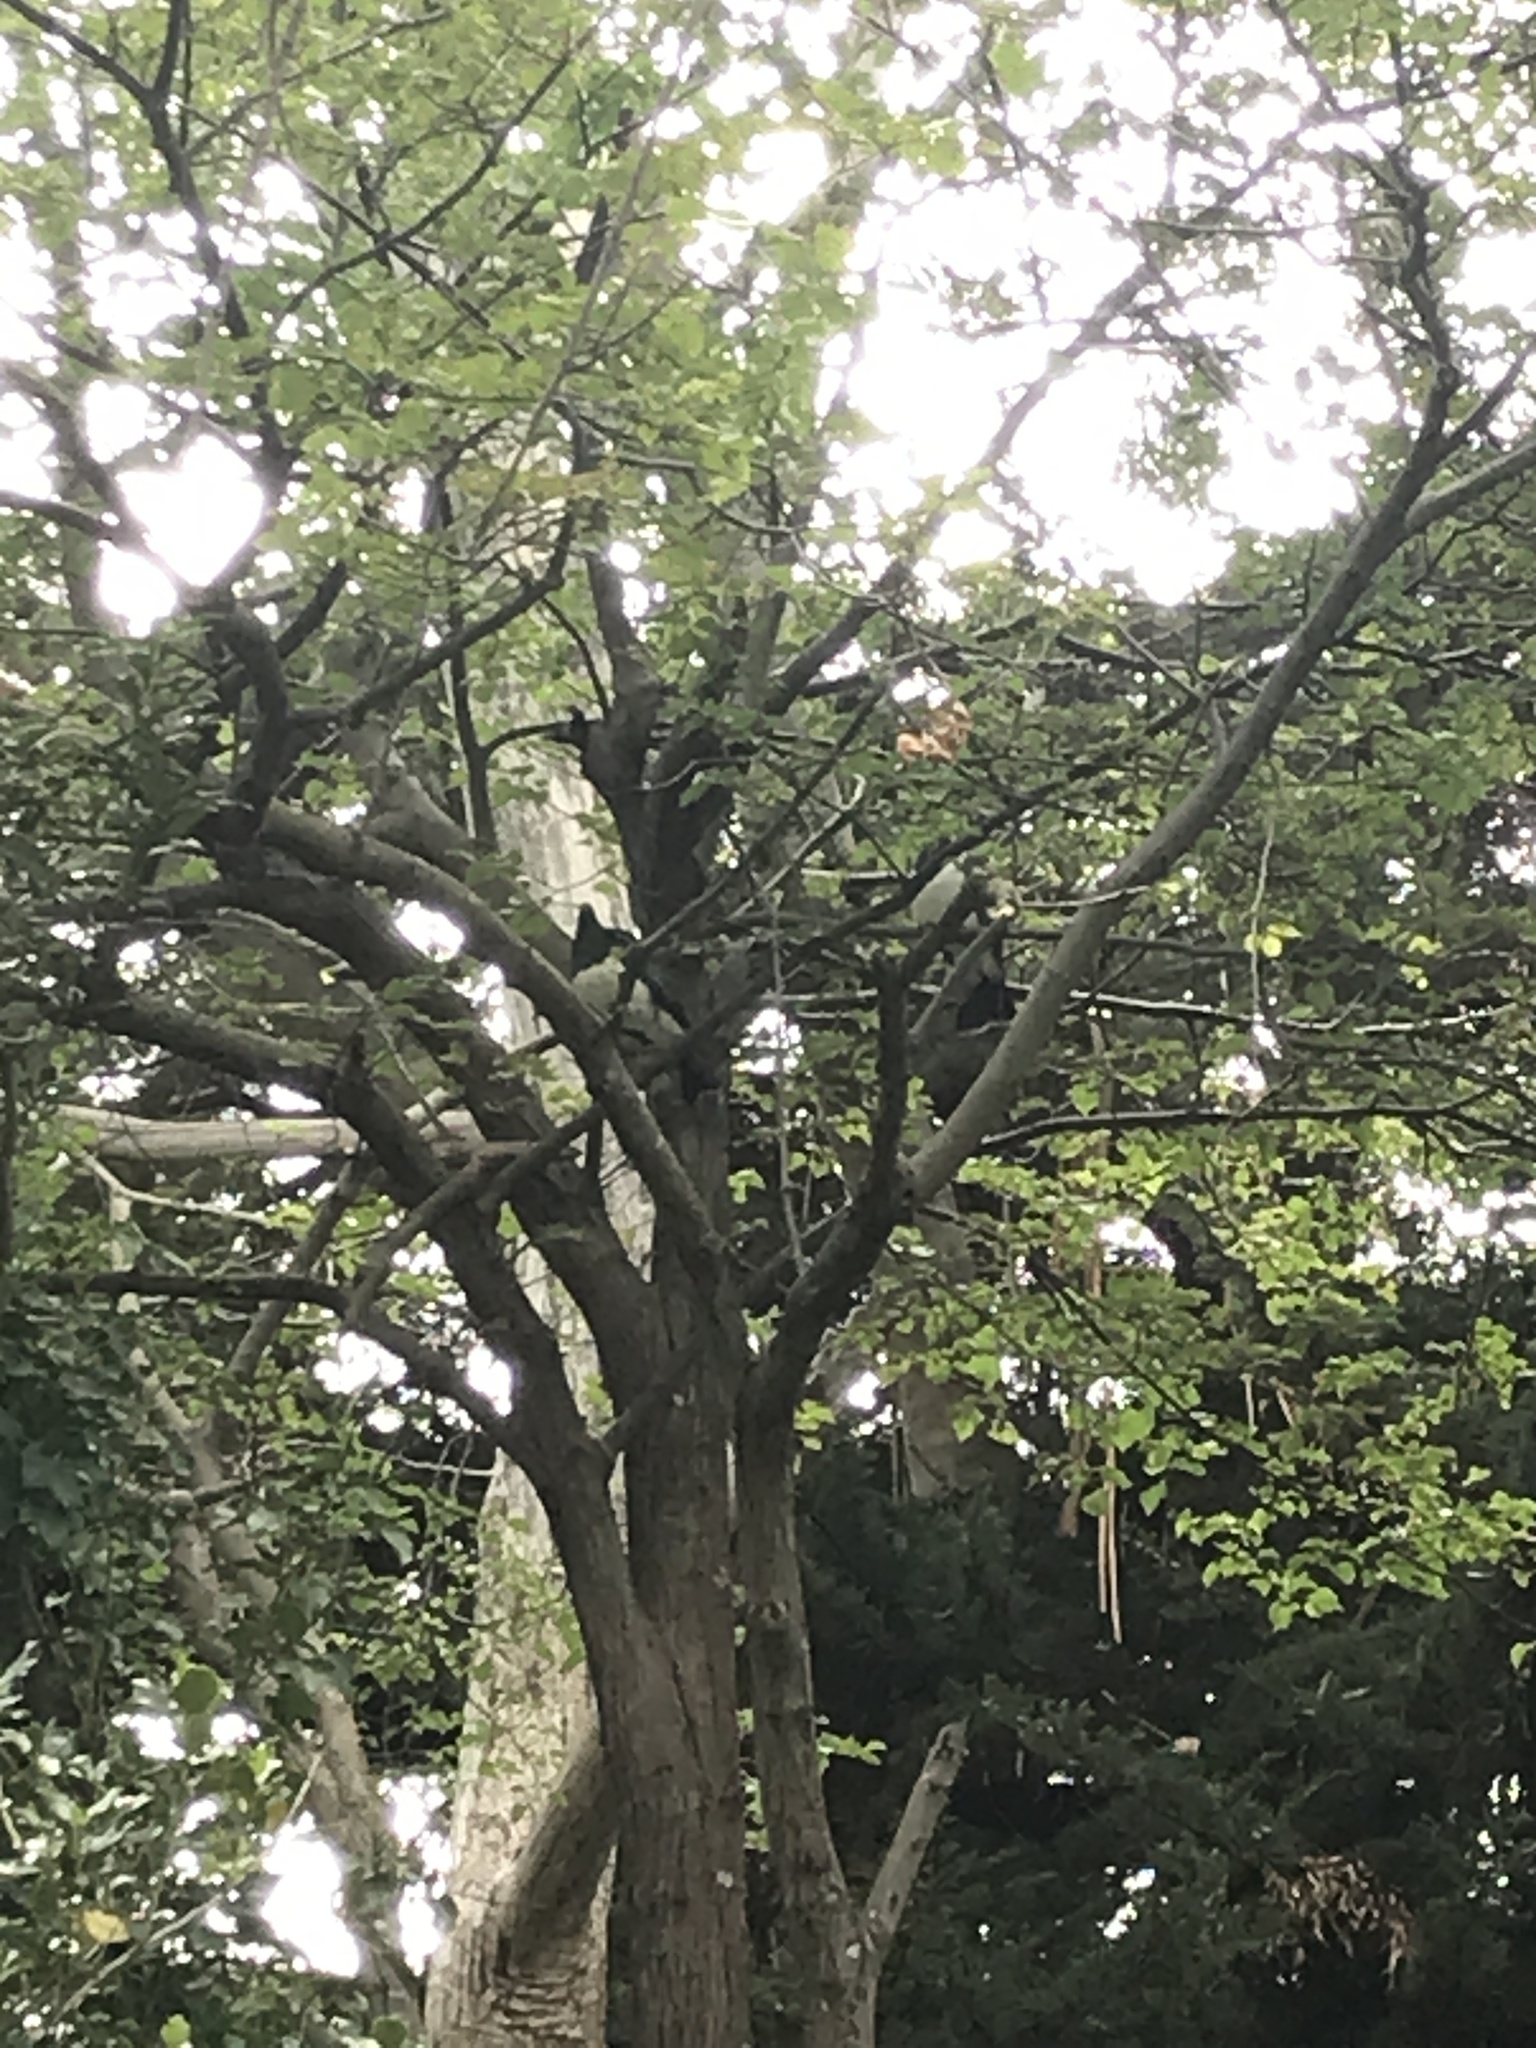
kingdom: Animalia
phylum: Chordata
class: Aves
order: Columbiformes
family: Columbidae
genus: Hemiphaga
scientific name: Hemiphaga novaeseelandiae
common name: New zealand pigeon
